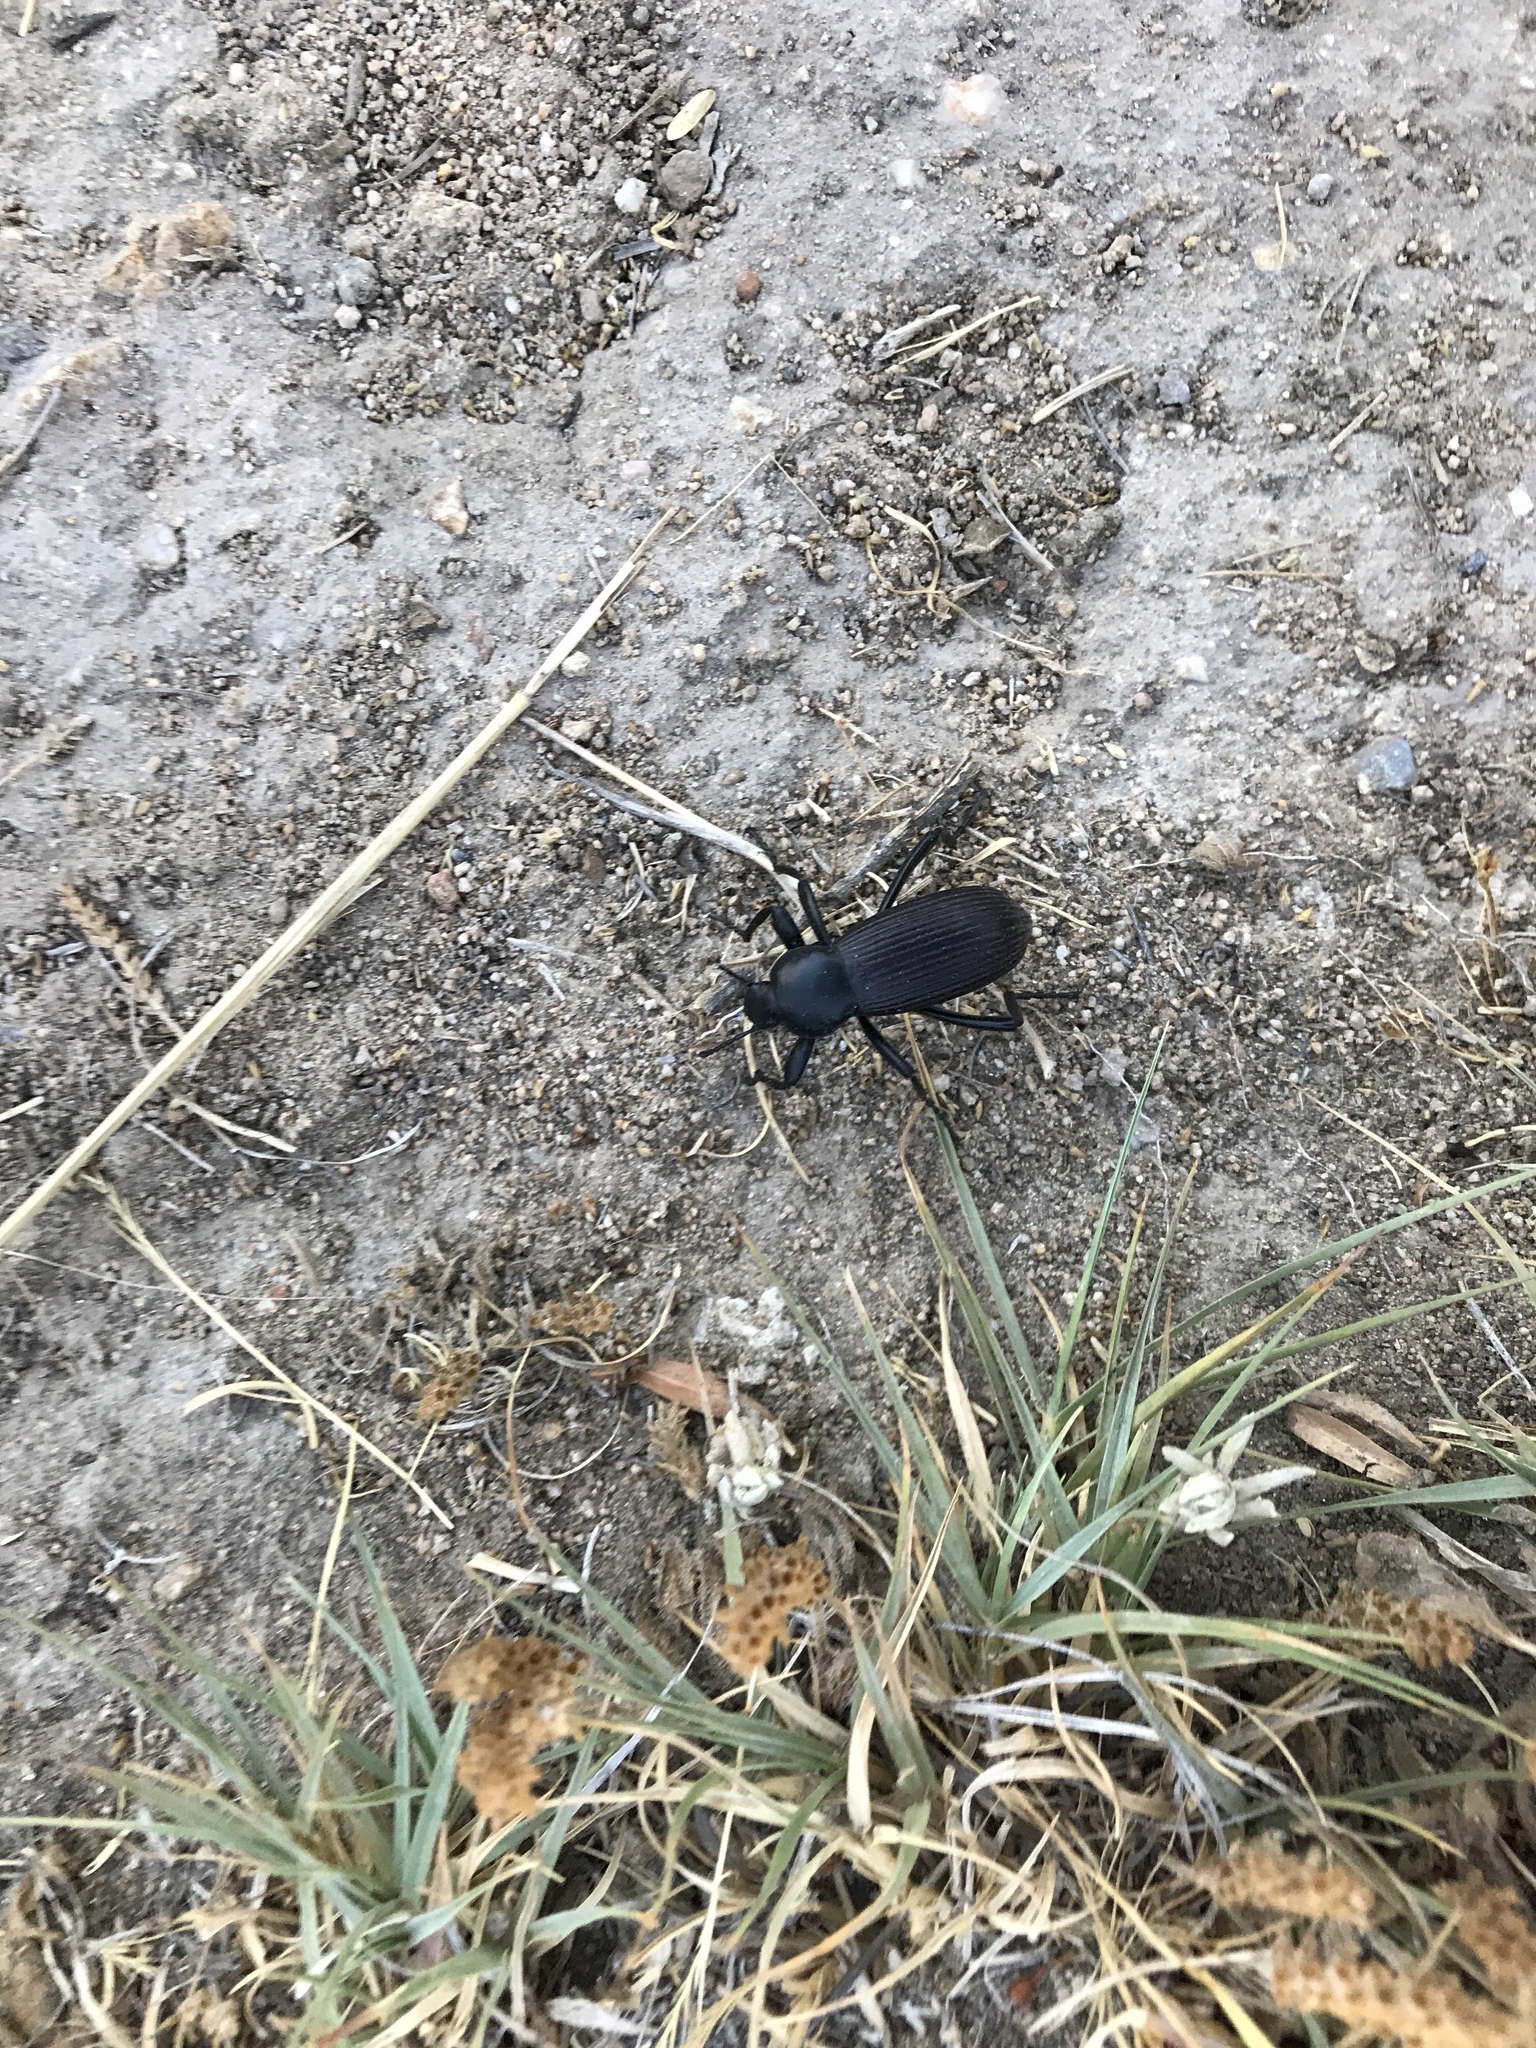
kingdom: Animalia
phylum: Arthropoda
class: Insecta
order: Coleoptera
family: Tenebrionidae
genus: Eleodes
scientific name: Eleodes obscura
